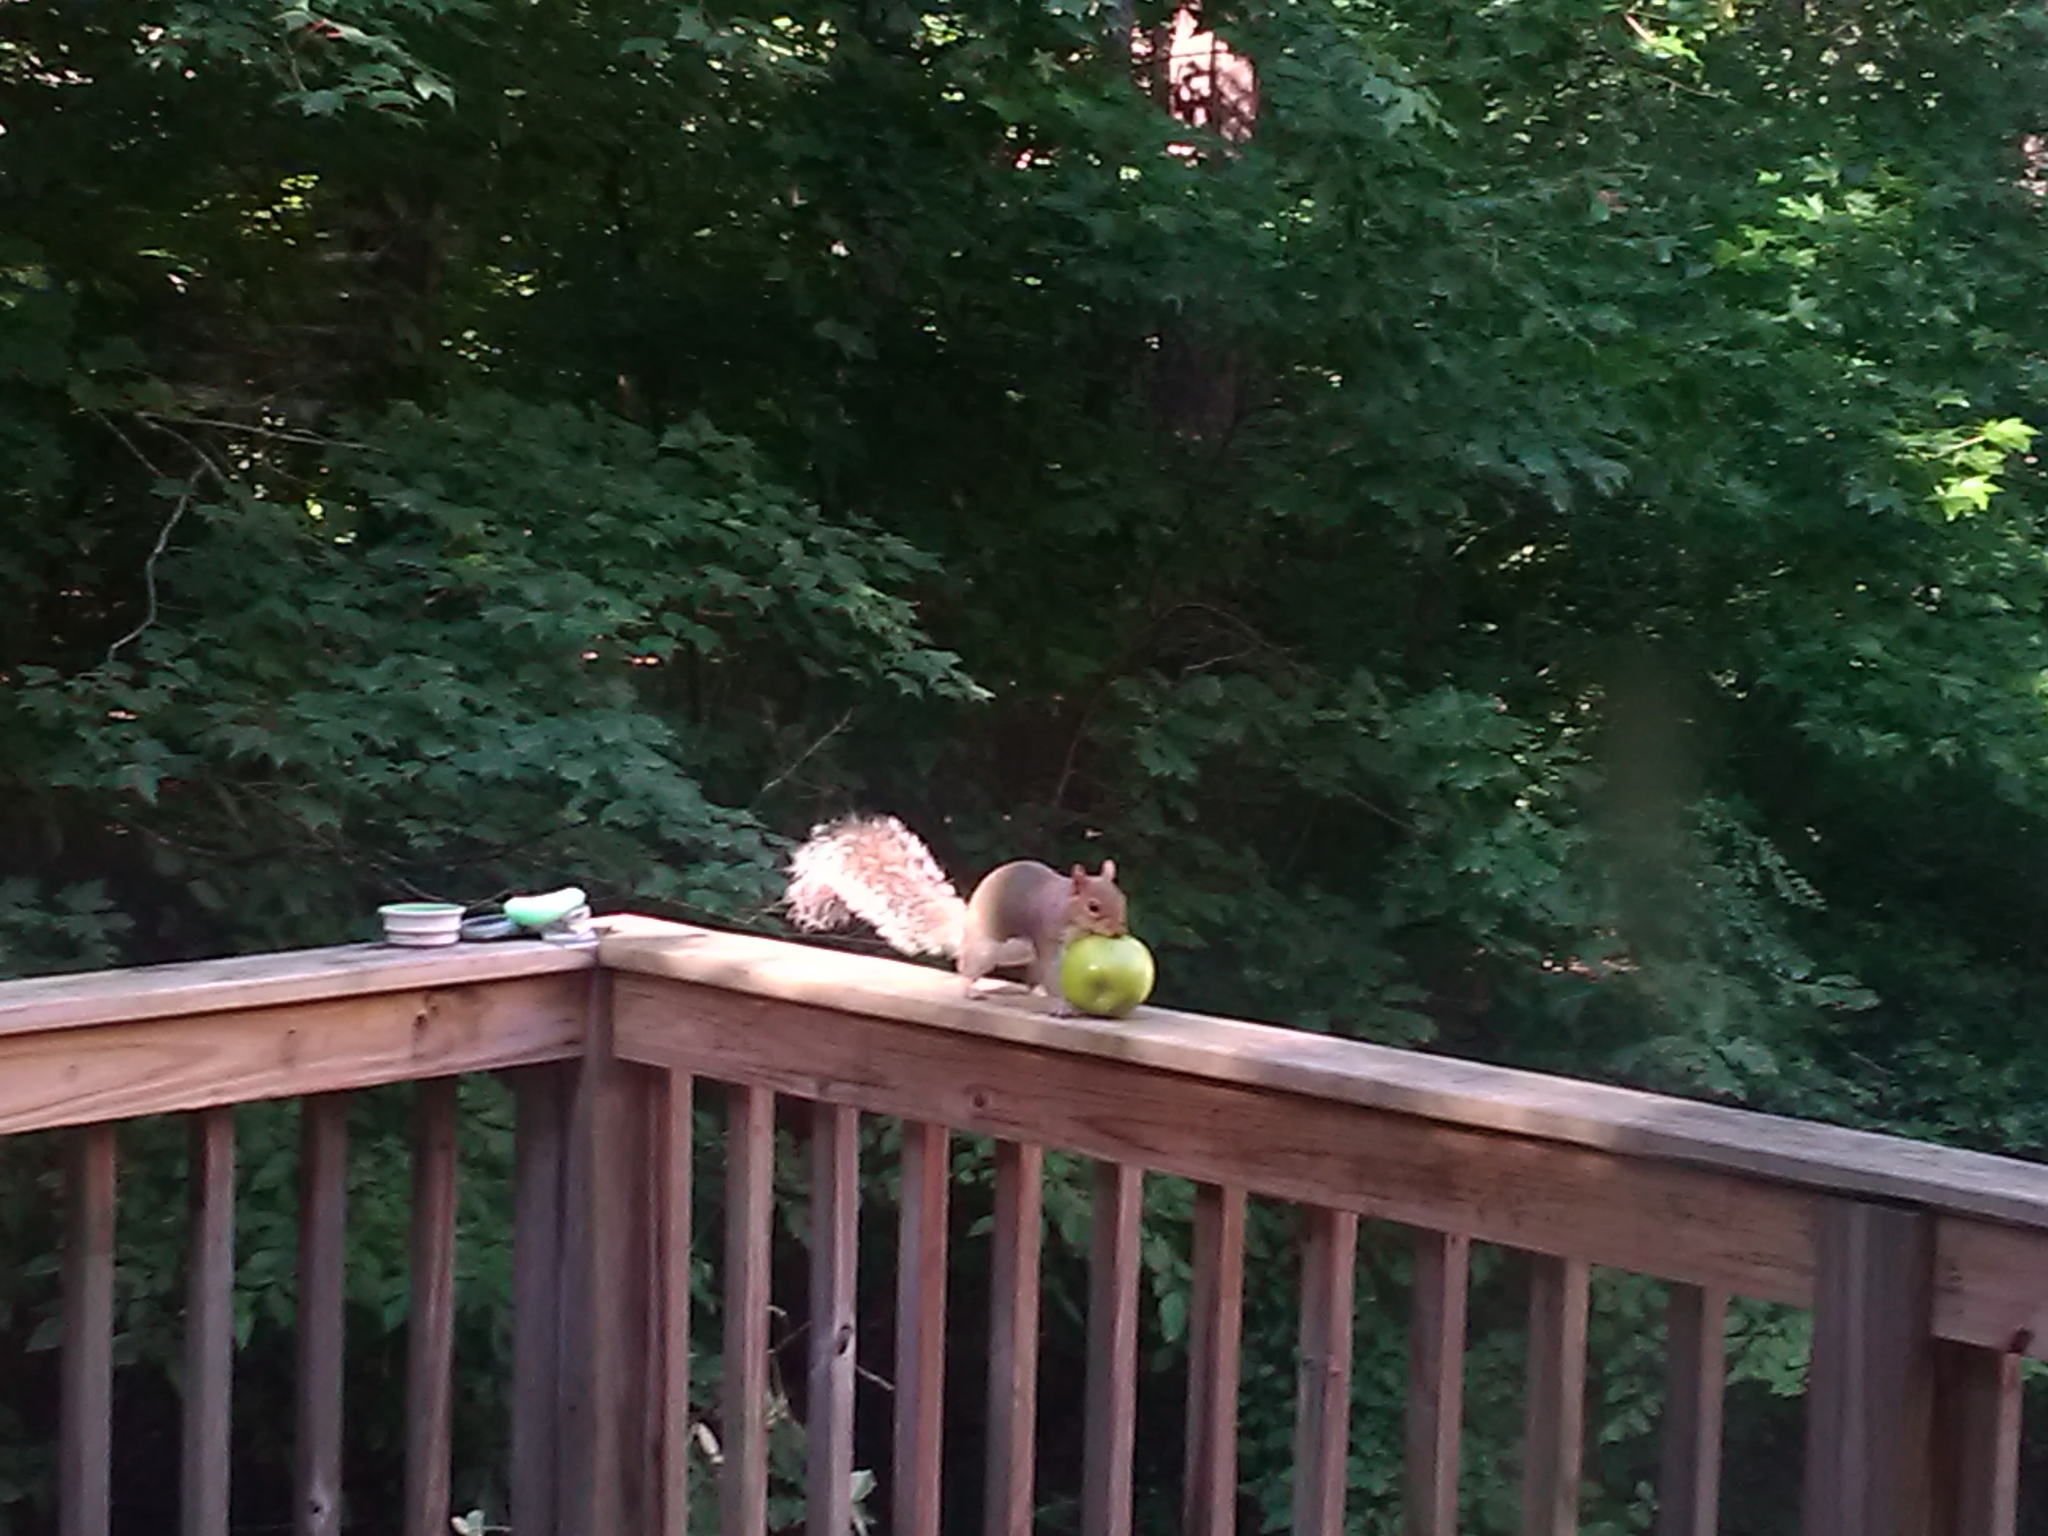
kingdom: Animalia
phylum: Chordata
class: Mammalia
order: Rodentia
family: Sciuridae
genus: Sciurus
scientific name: Sciurus carolinensis
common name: Eastern gray squirrel
